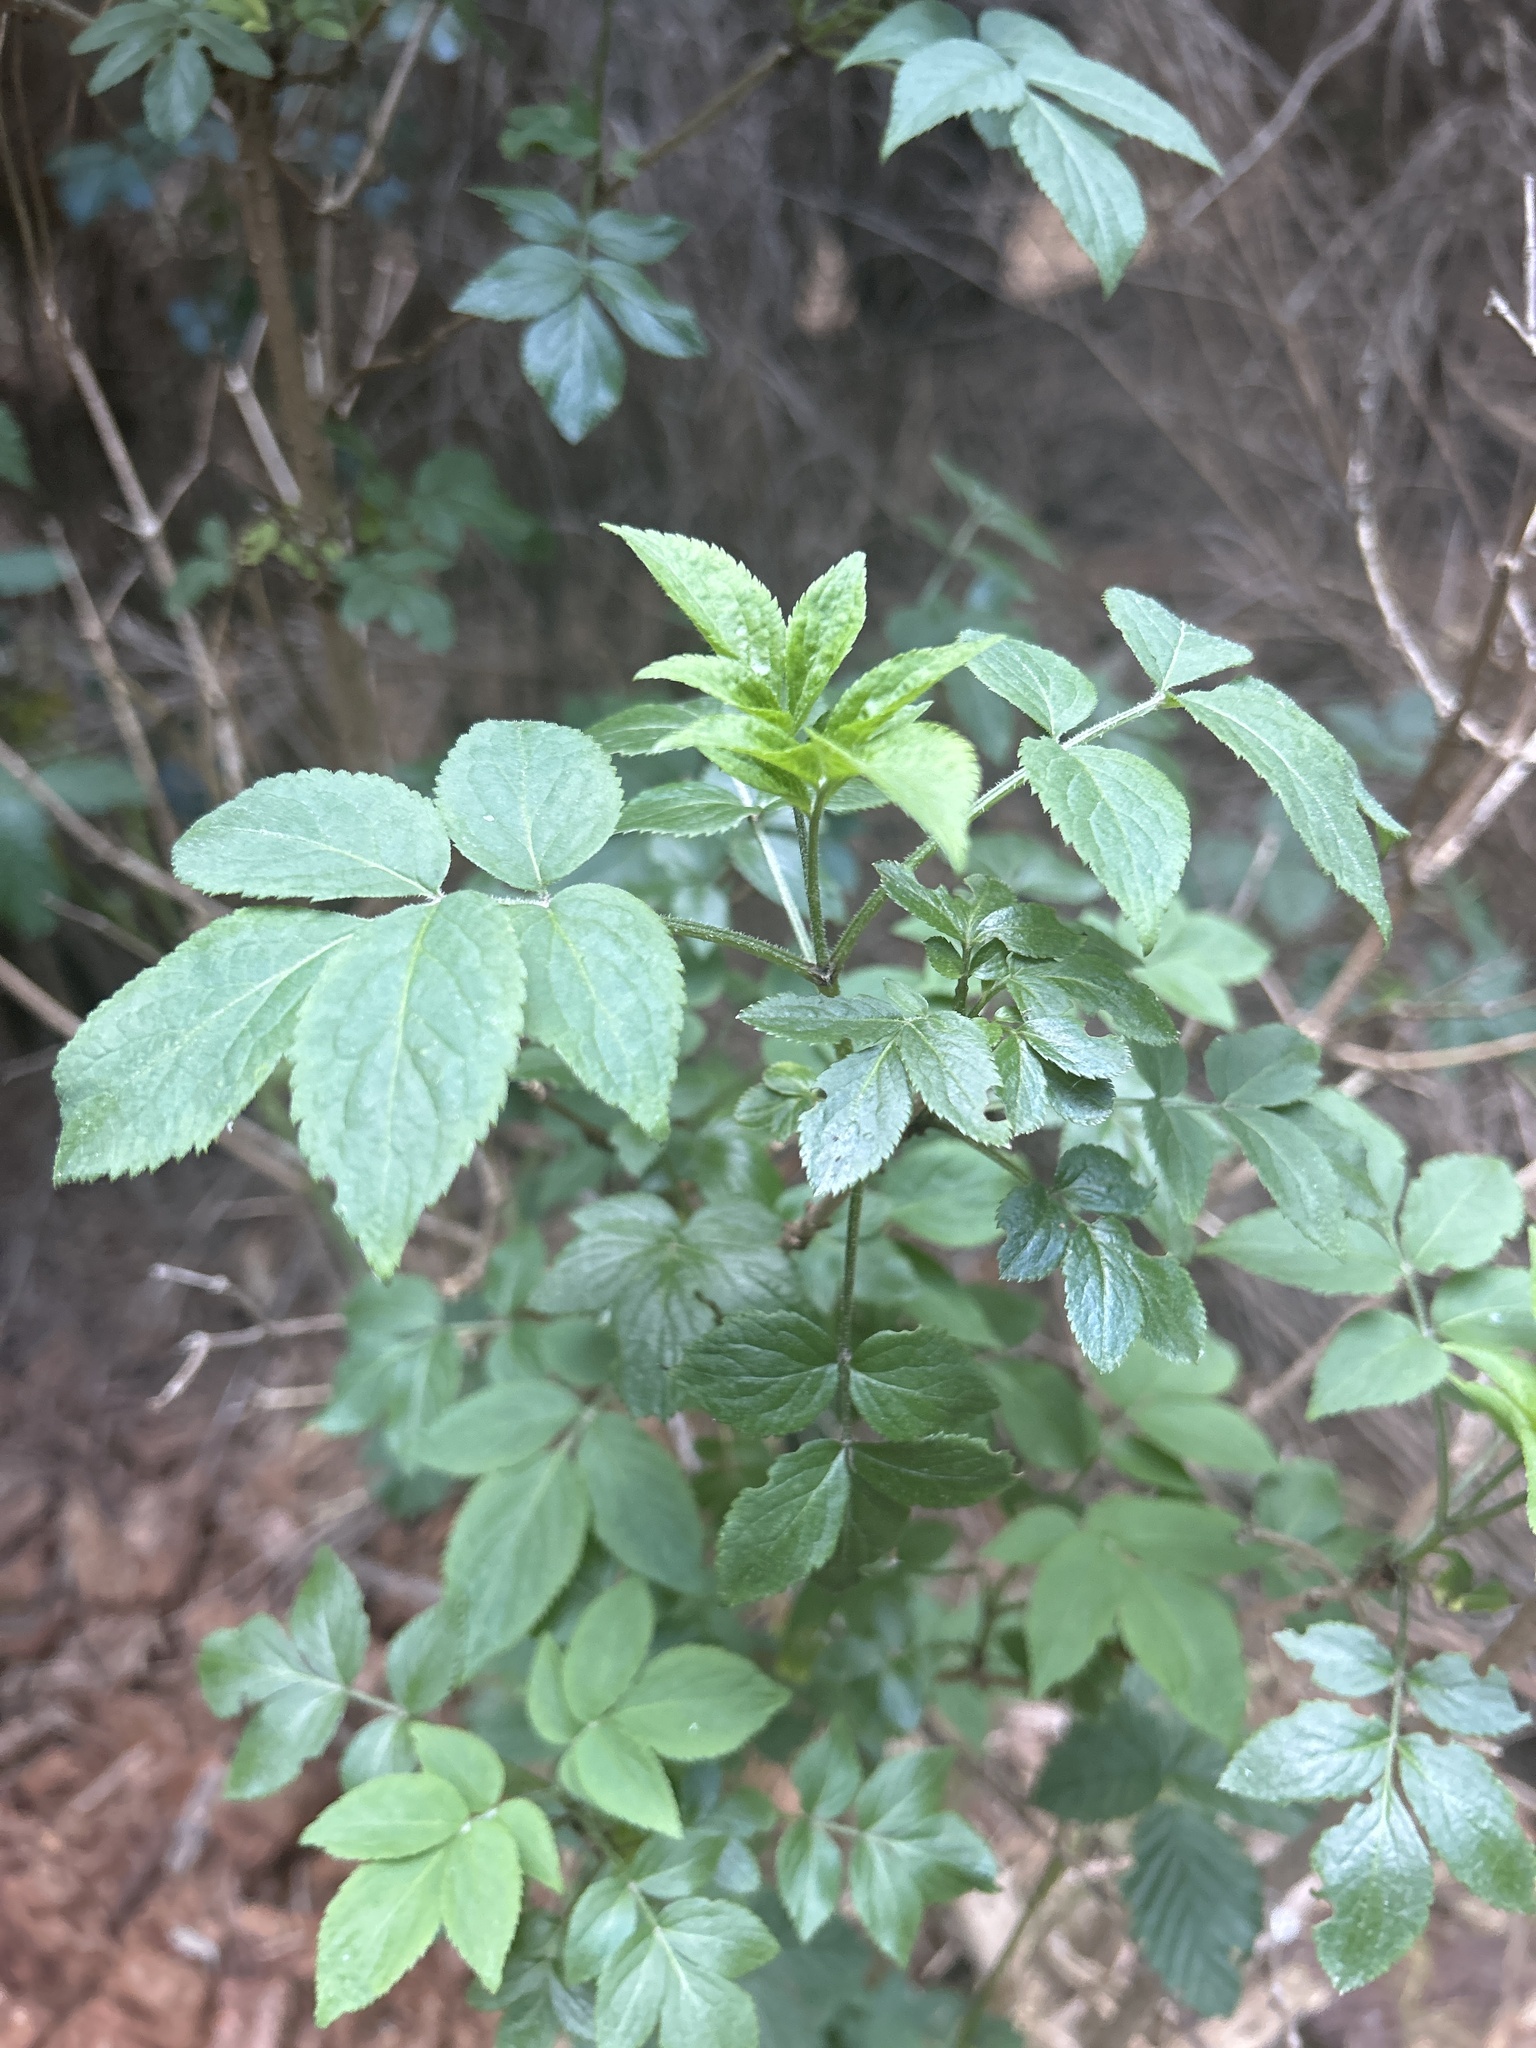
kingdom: Plantae
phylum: Tracheophyta
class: Magnoliopsida
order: Dipsacales
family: Viburnaceae
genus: Sambucus
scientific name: Sambucus nigra
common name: Elder
